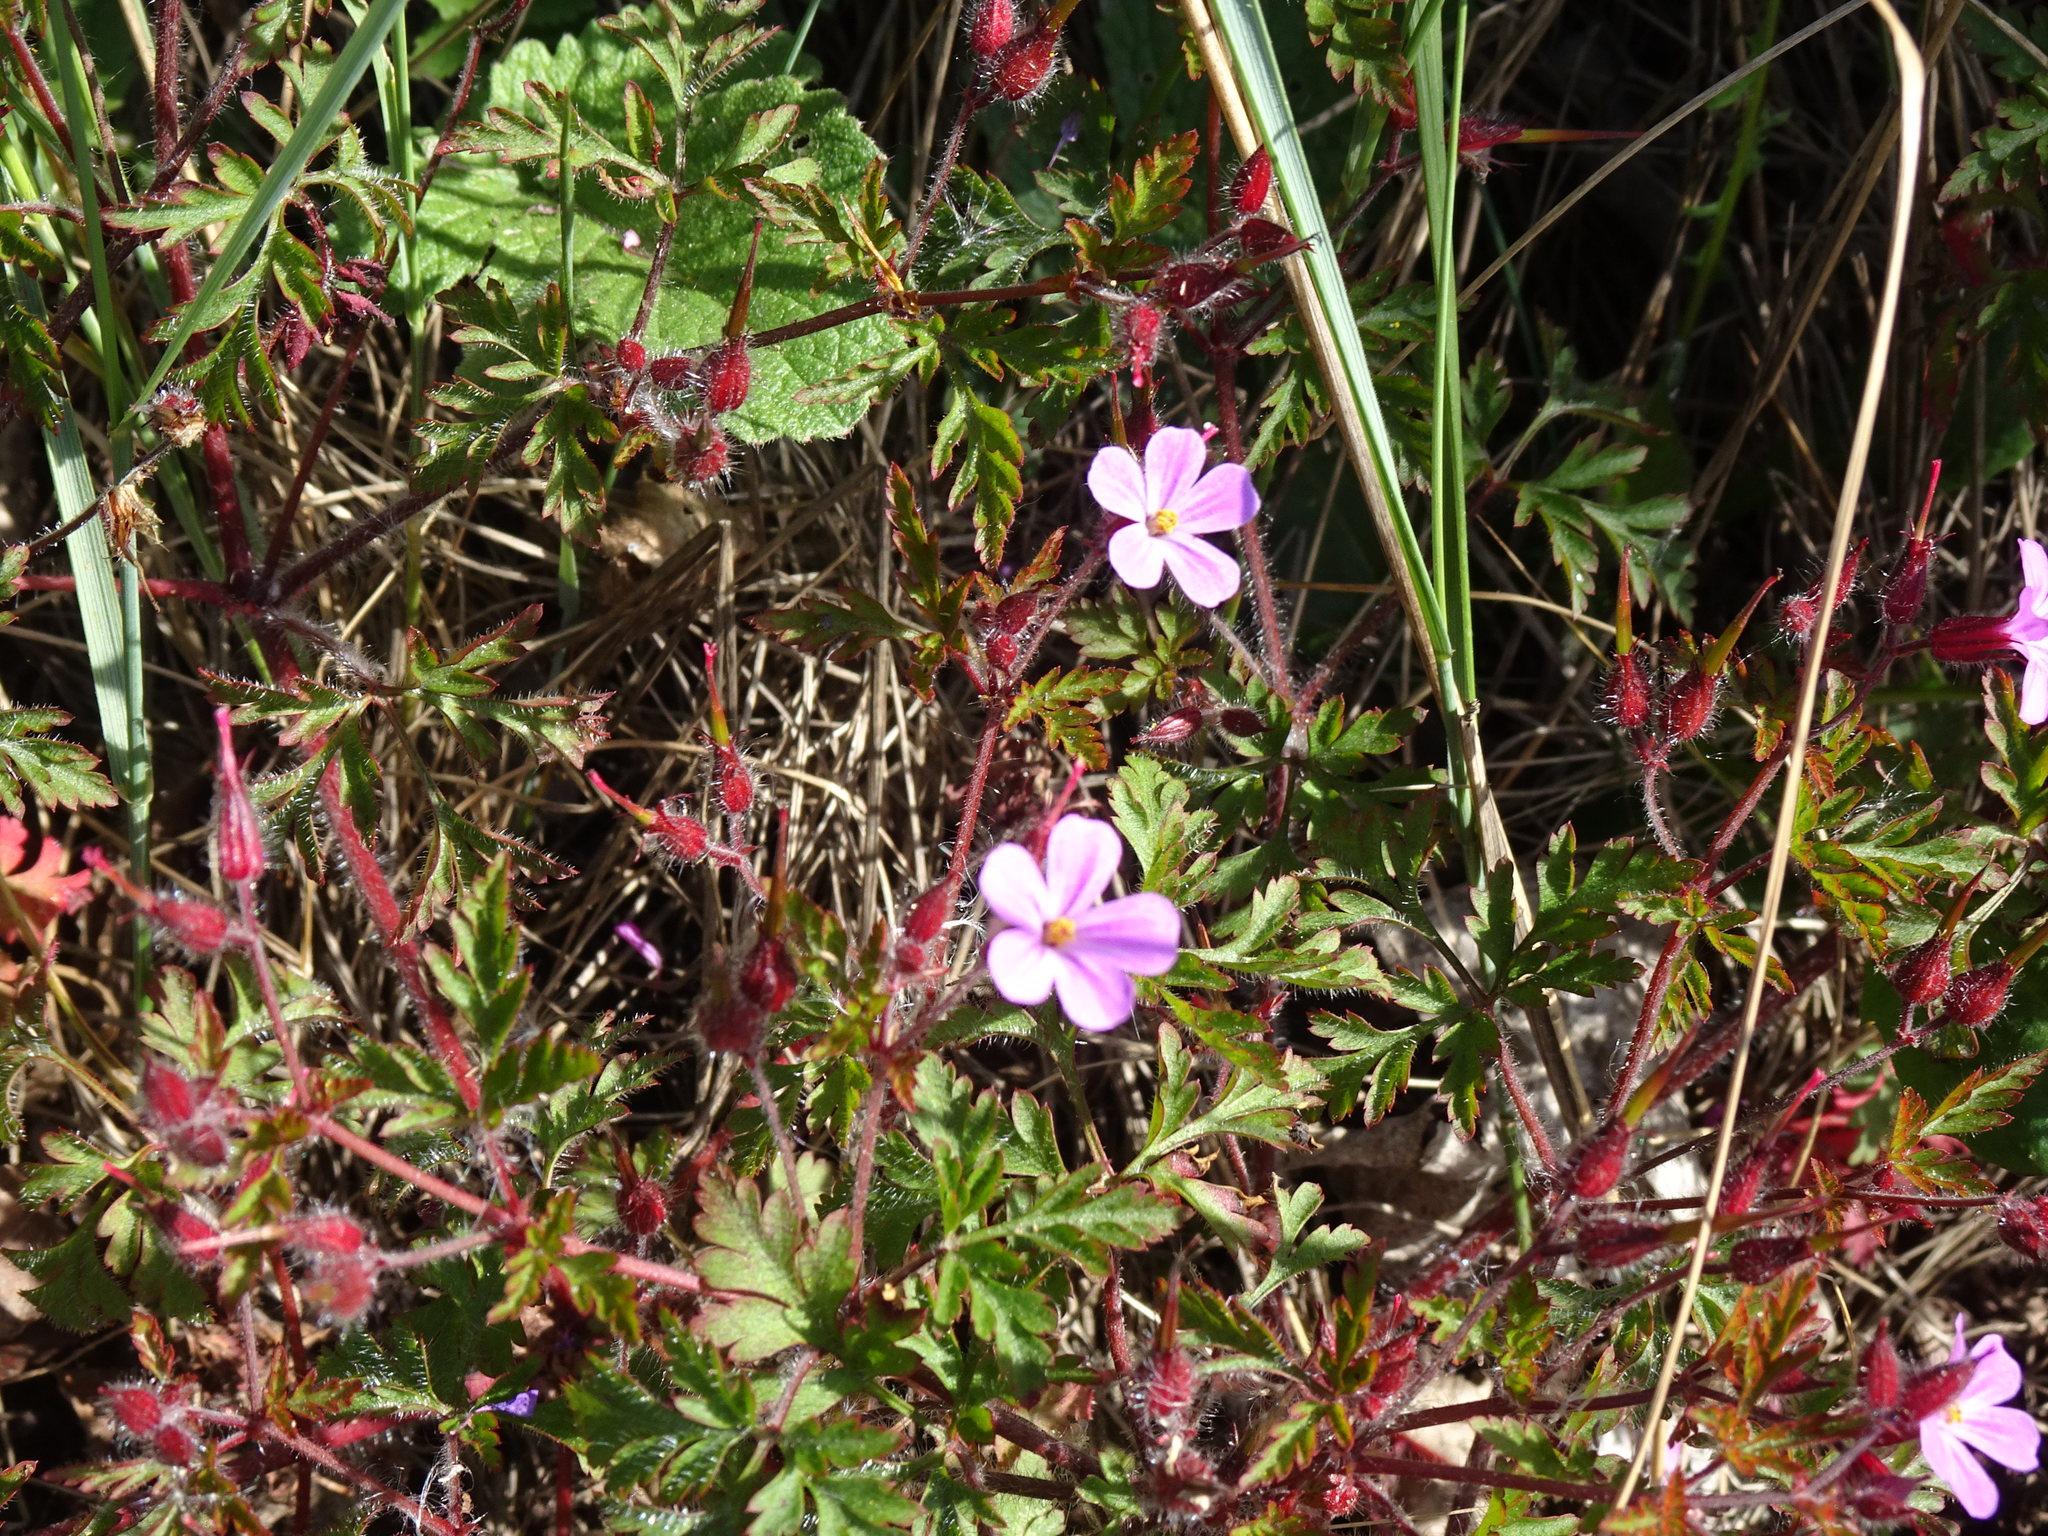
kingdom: Plantae
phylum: Tracheophyta
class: Magnoliopsida
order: Geraniales
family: Geraniaceae
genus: Geranium
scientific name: Geranium robertianum
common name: Herb-robert
